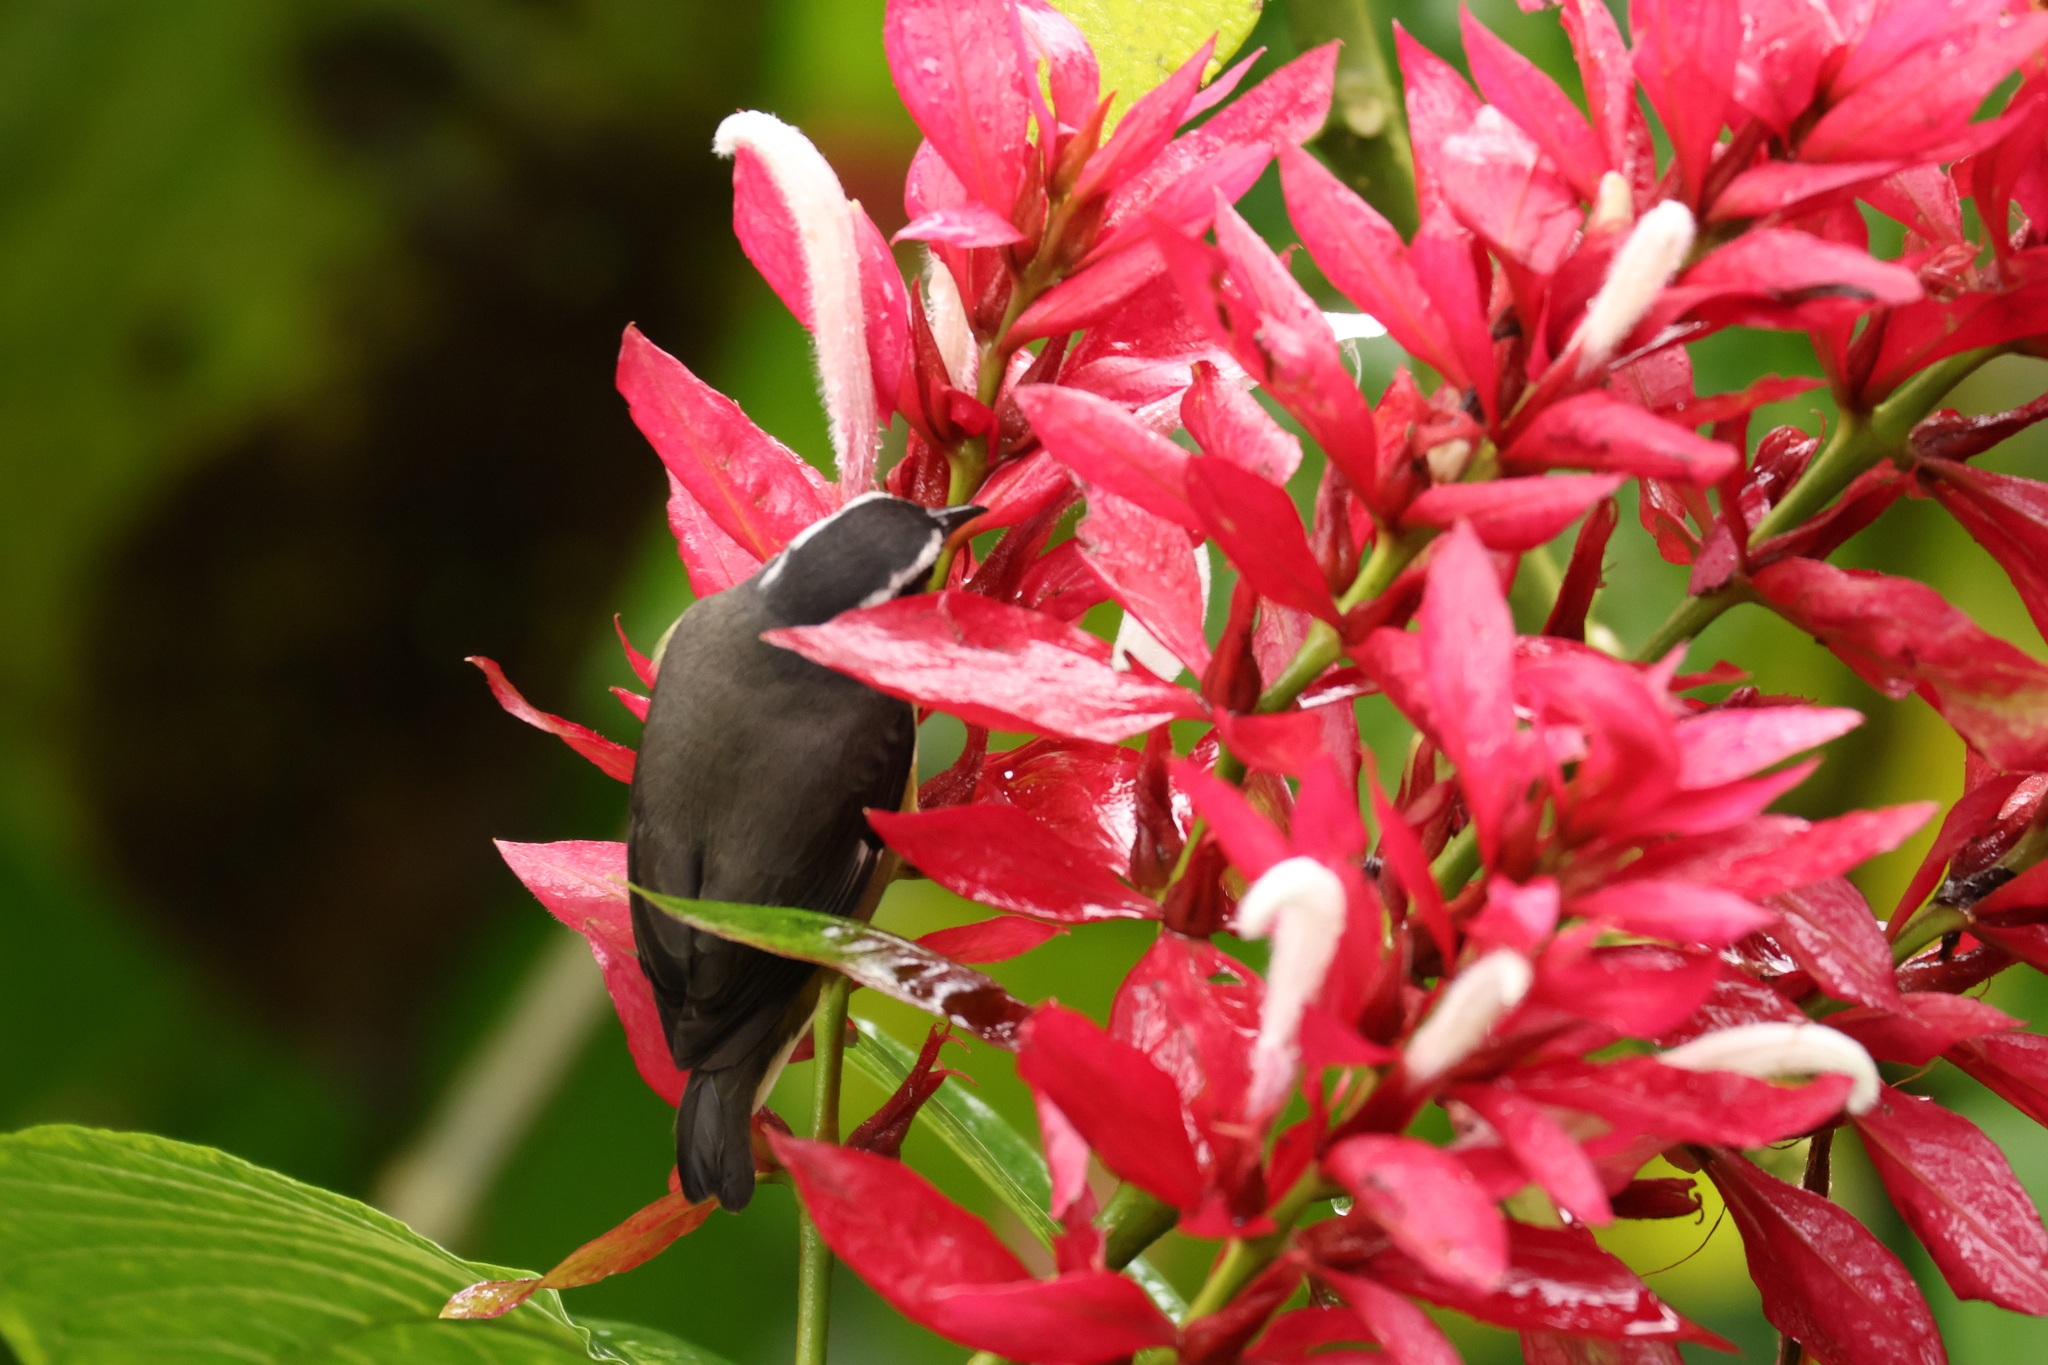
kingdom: Animalia
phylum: Chordata
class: Aves
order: Passeriformes
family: Thraupidae
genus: Coereba
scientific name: Coereba flaveola
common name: Bananaquit
